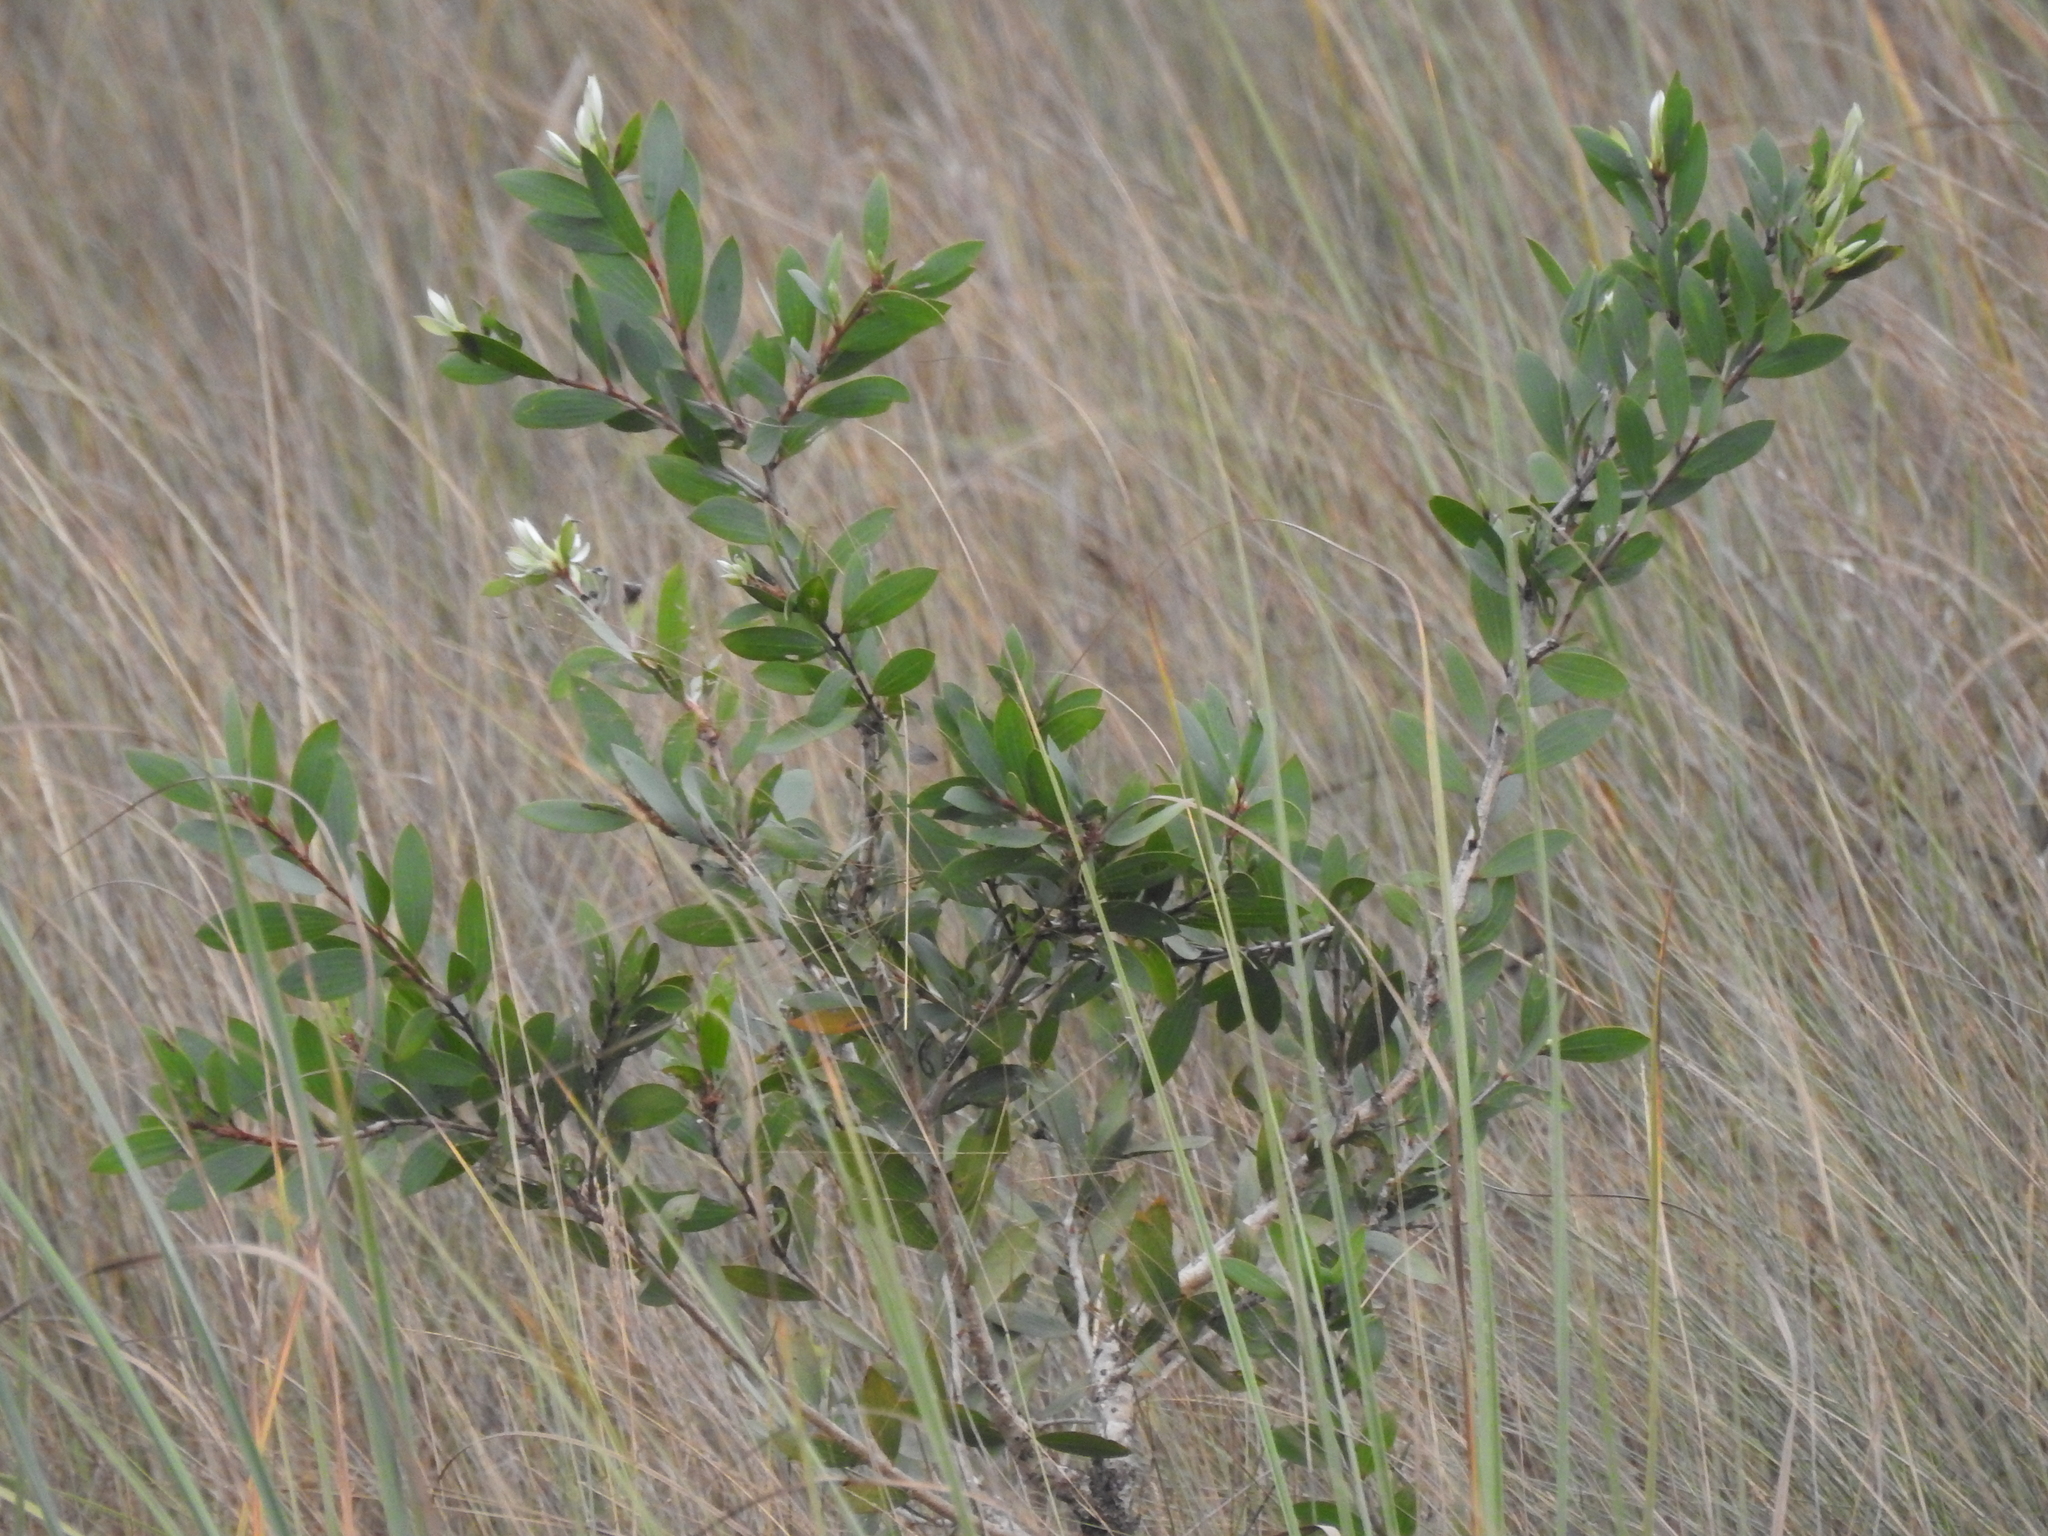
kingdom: Plantae
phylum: Tracheophyta
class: Magnoliopsida
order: Myrtales
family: Myrtaceae
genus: Melaleuca
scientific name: Melaleuca quinquenervia
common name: Punktree
